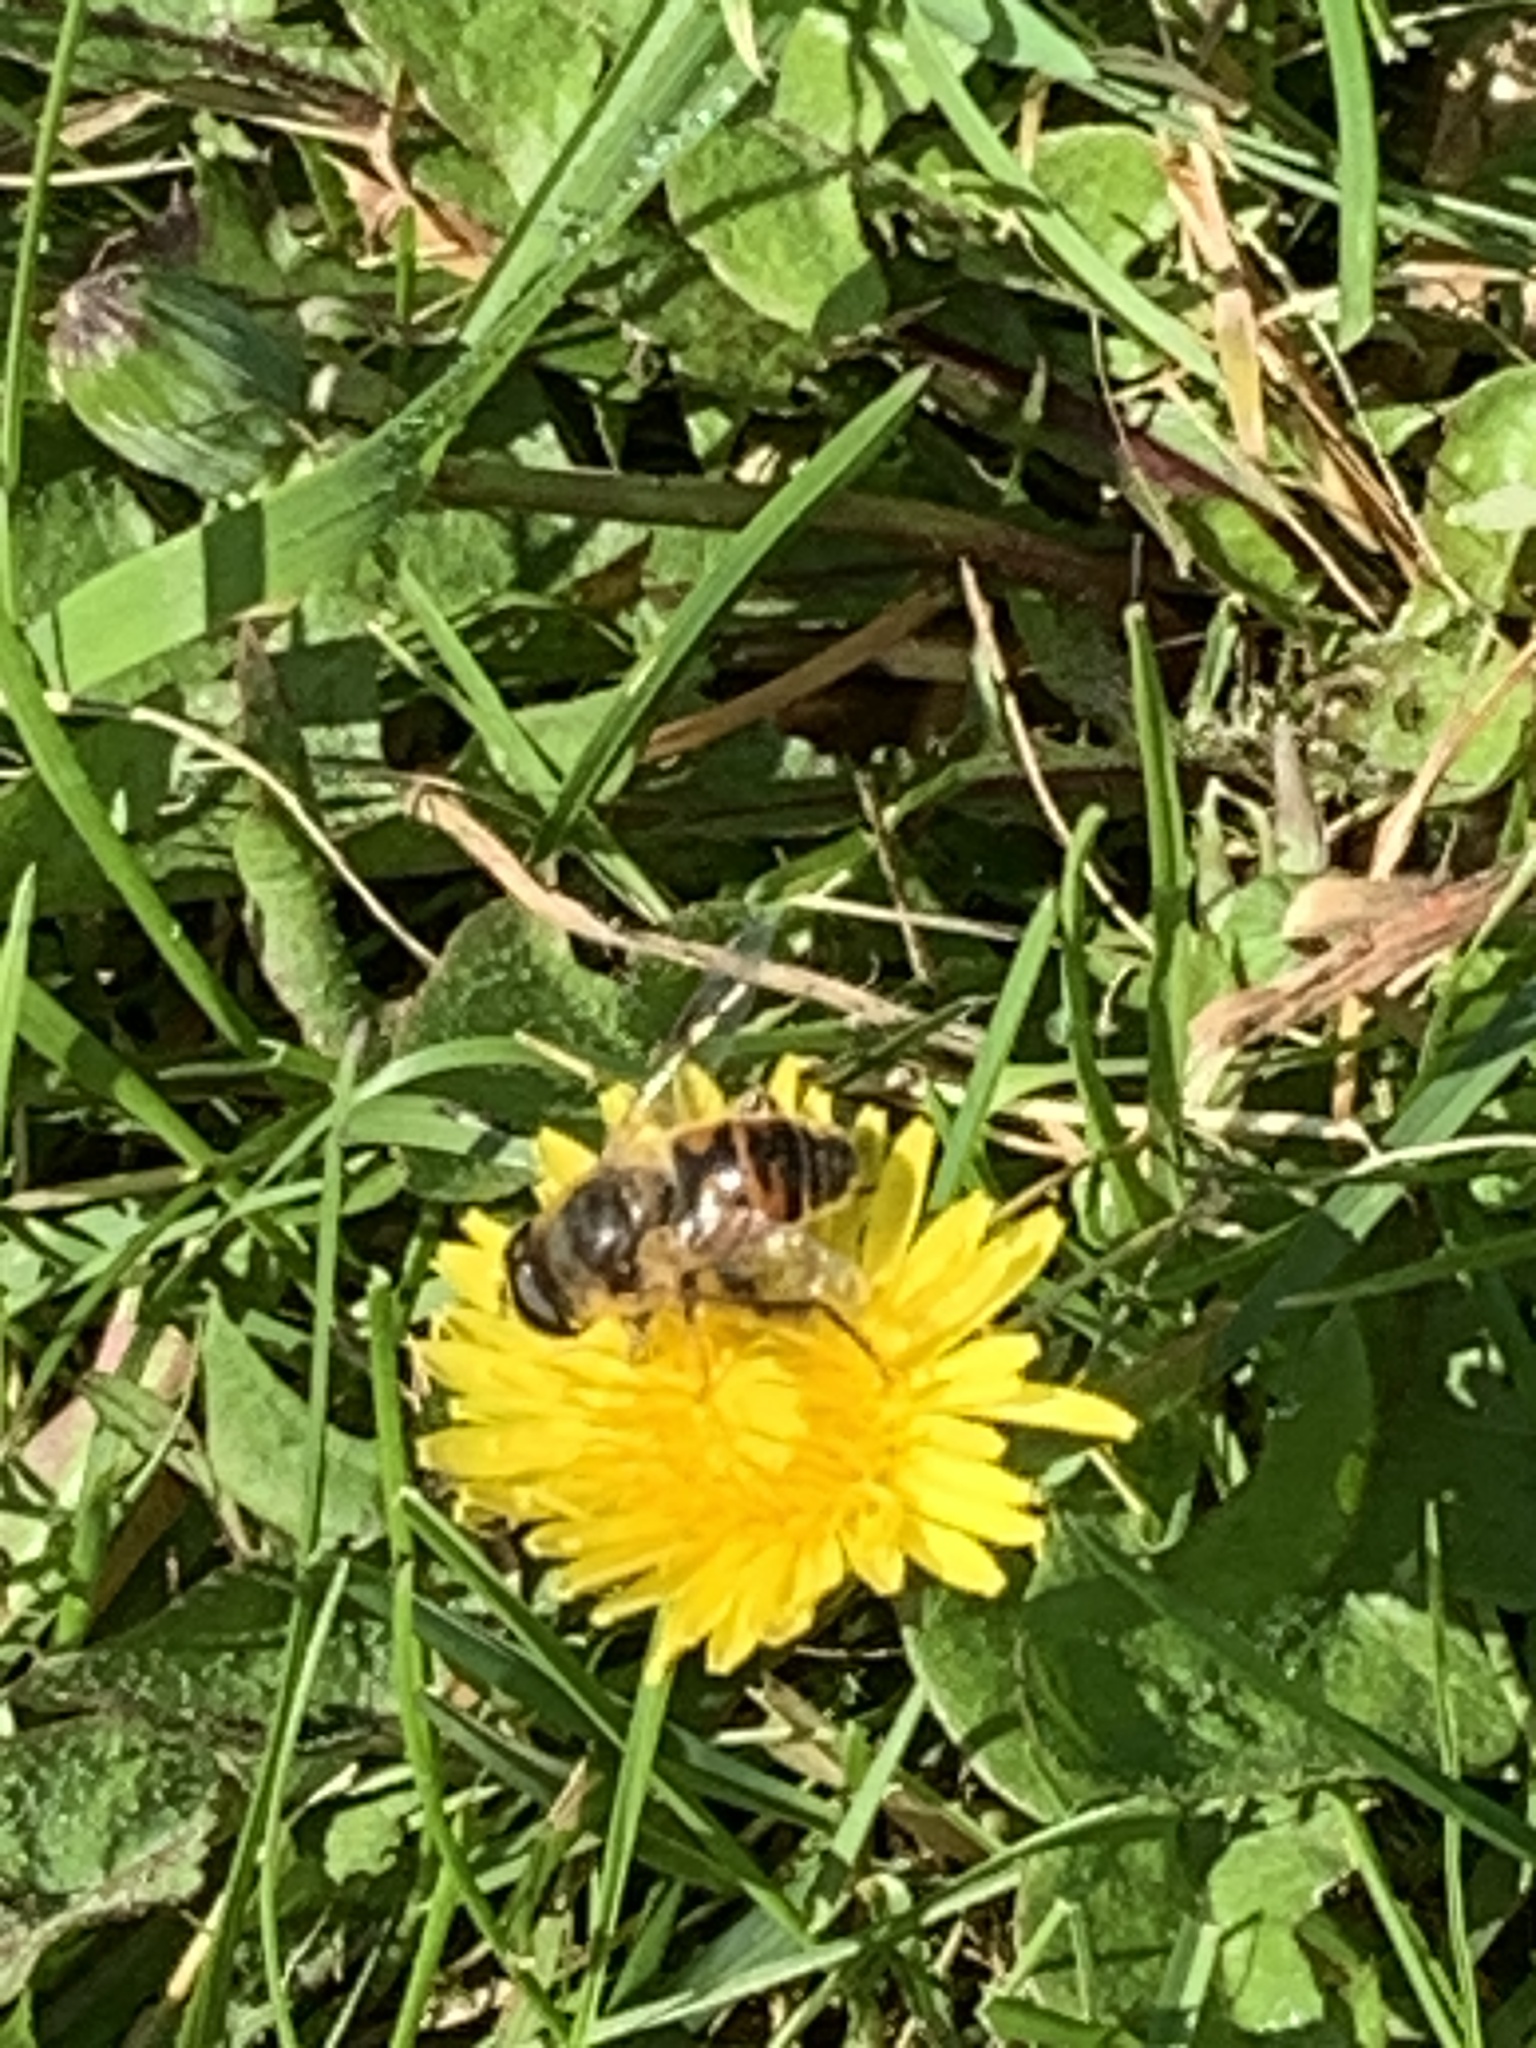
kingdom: Animalia
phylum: Arthropoda
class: Insecta
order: Diptera
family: Syrphidae
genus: Eristalis
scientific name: Eristalis tenax
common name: Drone fly
